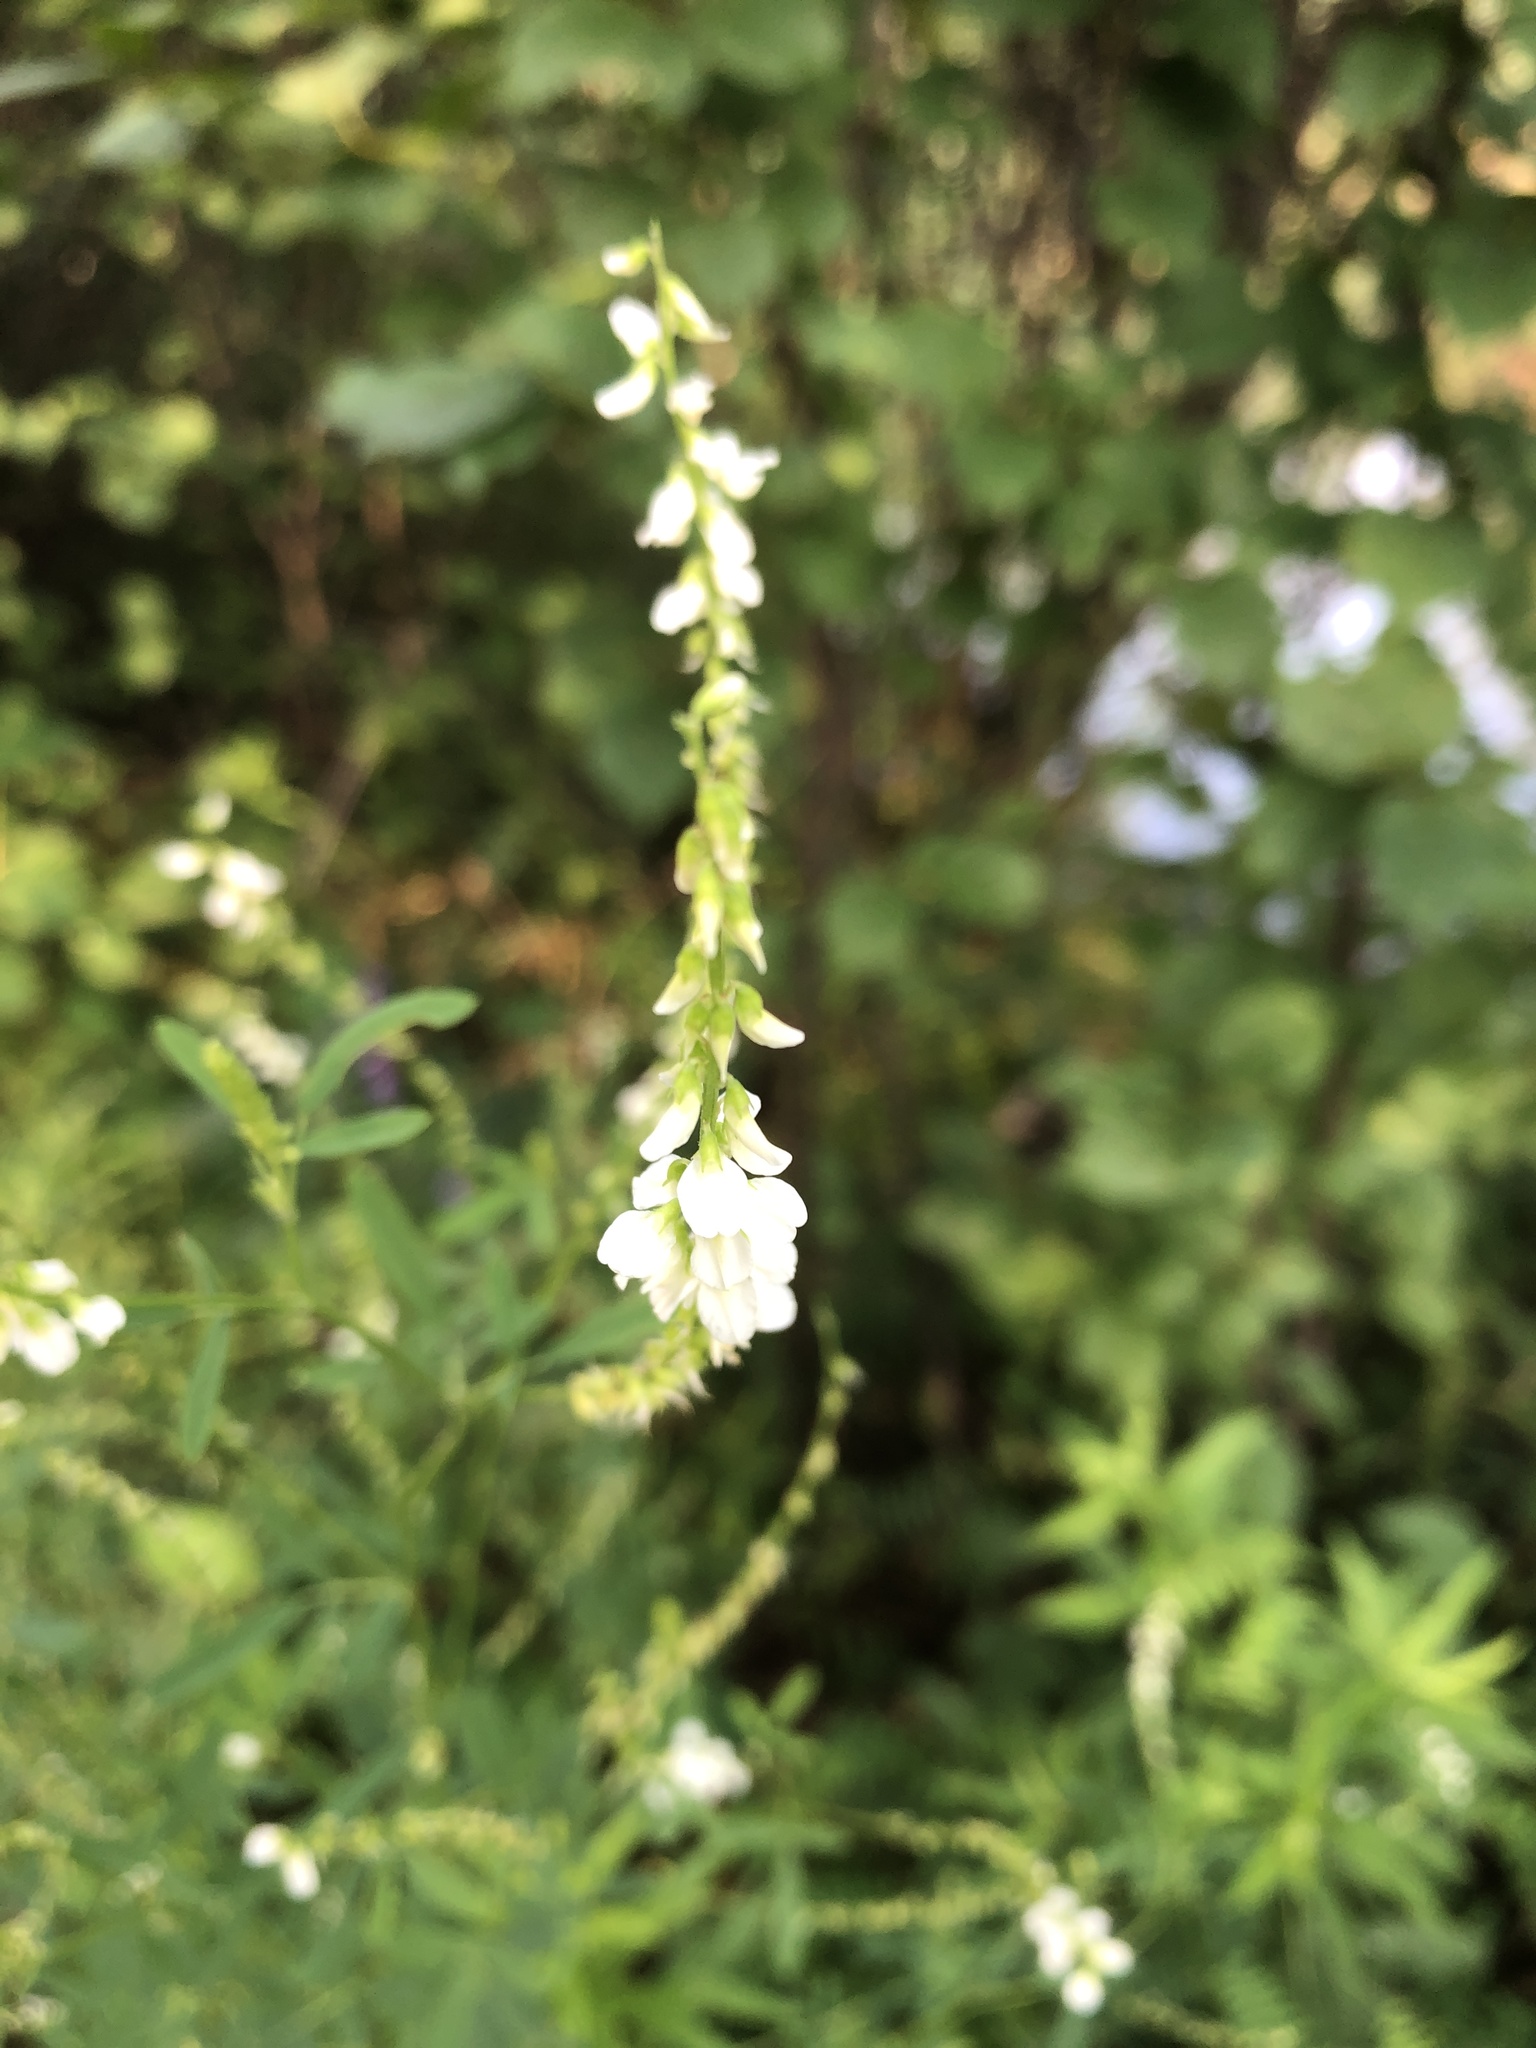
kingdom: Plantae
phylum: Tracheophyta
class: Magnoliopsida
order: Fabales
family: Fabaceae
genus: Melilotus
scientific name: Melilotus albus
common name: White melilot
